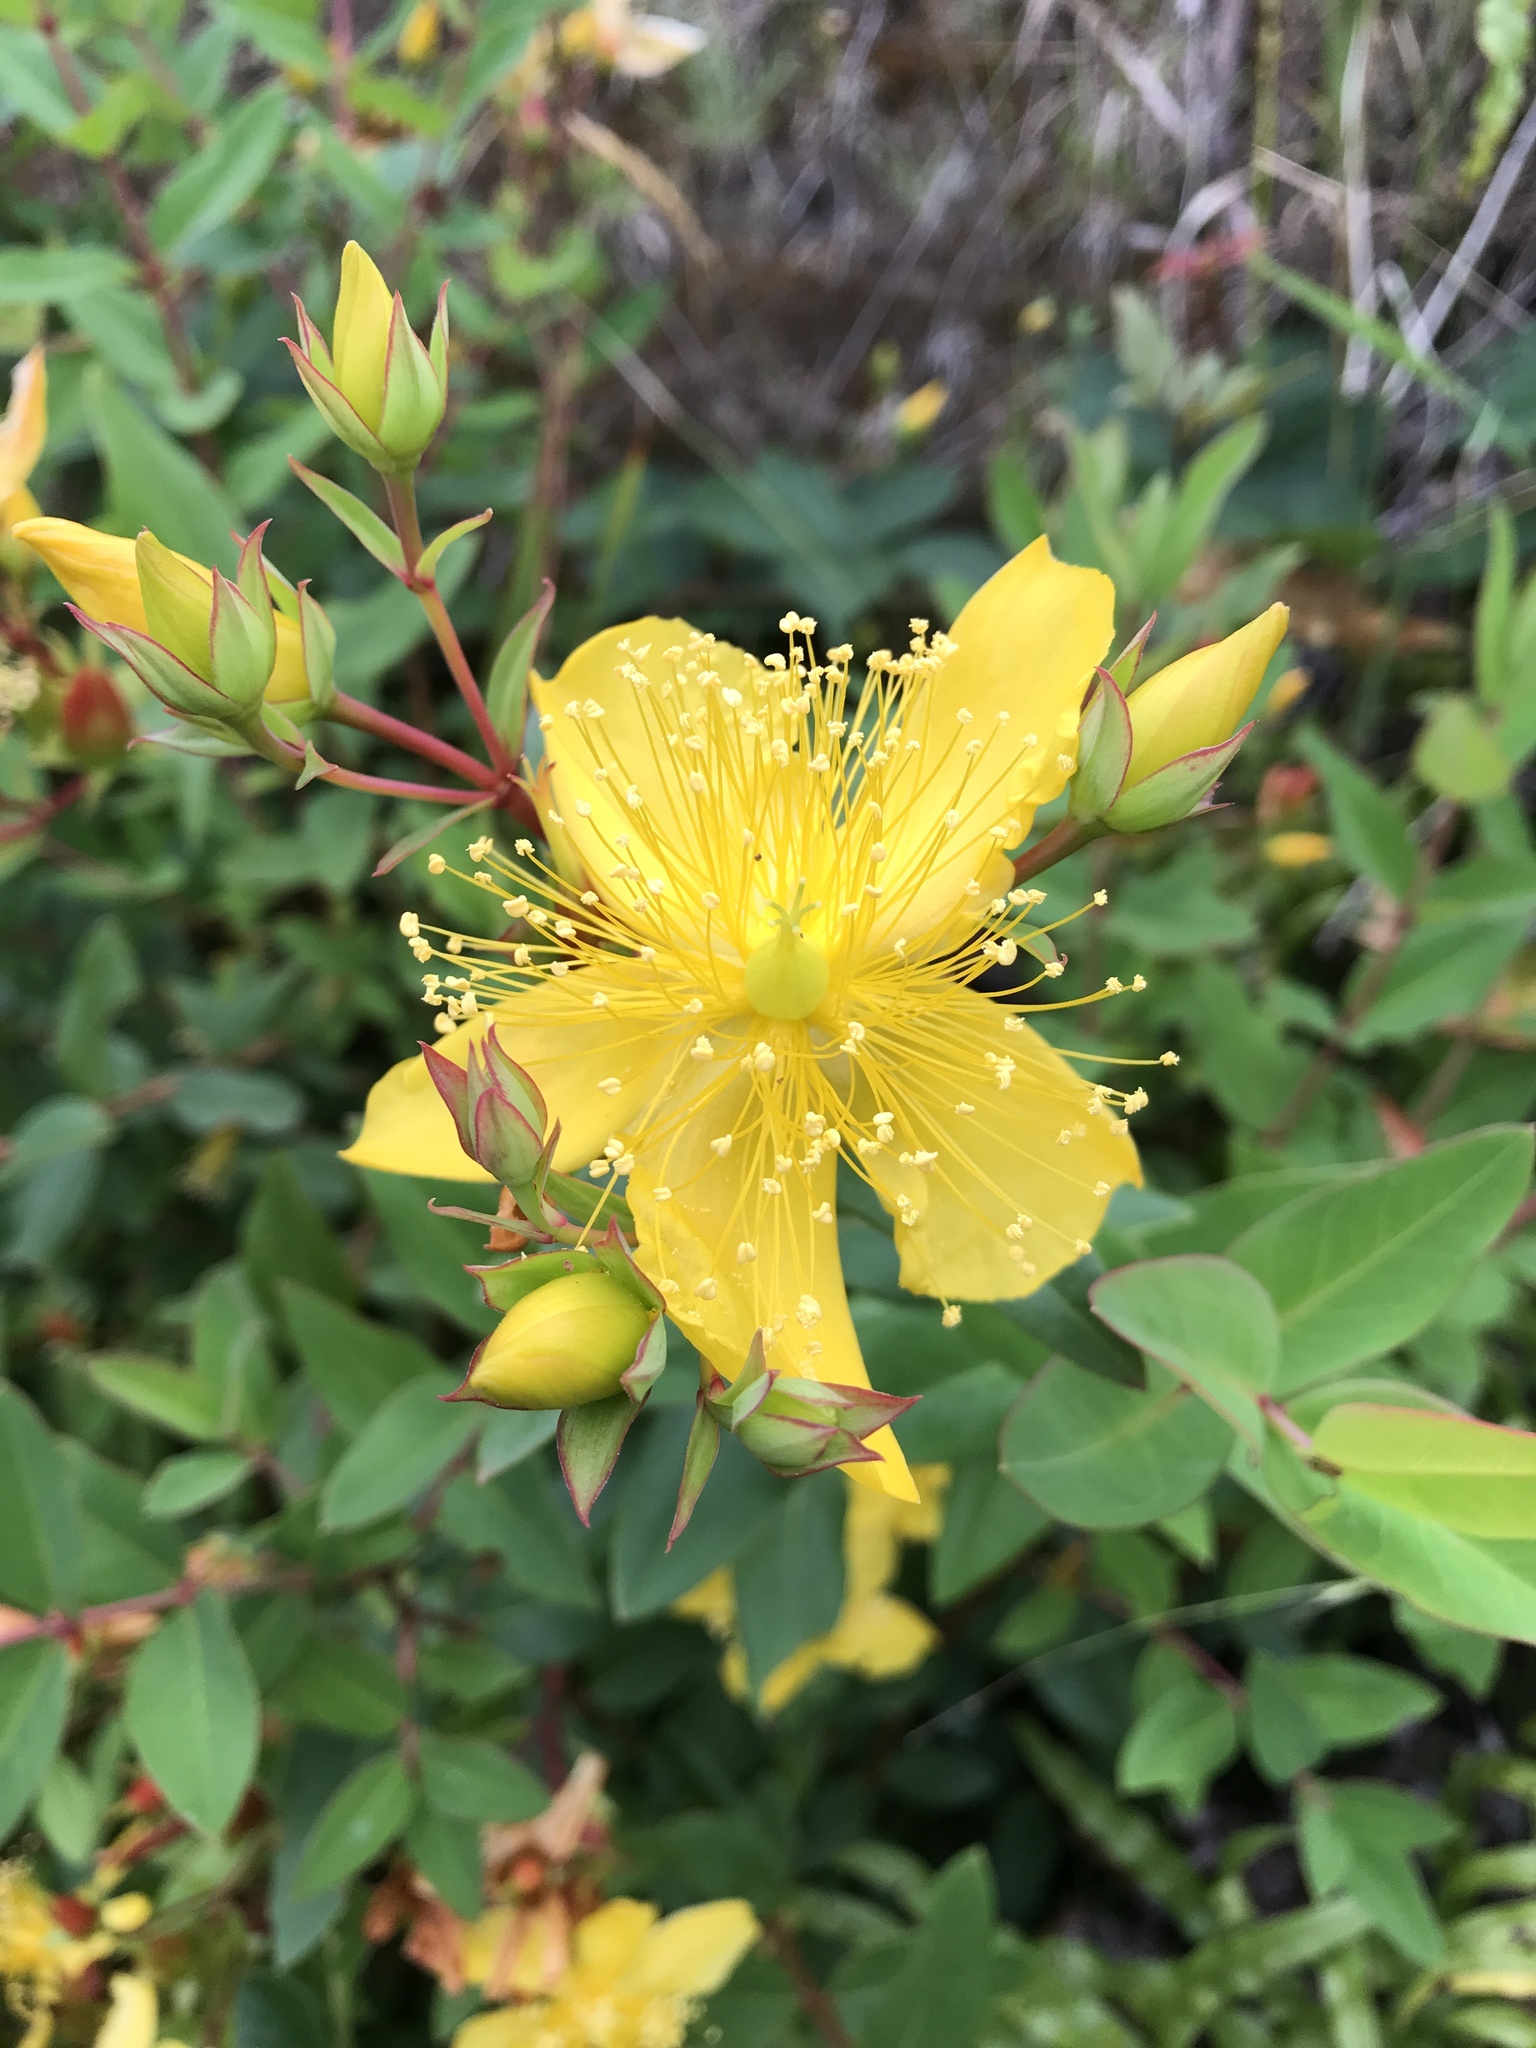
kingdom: Plantae
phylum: Tracheophyta
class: Magnoliopsida
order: Malpighiales
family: Hypericaceae
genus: Hypericum
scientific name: Hypericum androsaemum
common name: Sweet-amber
